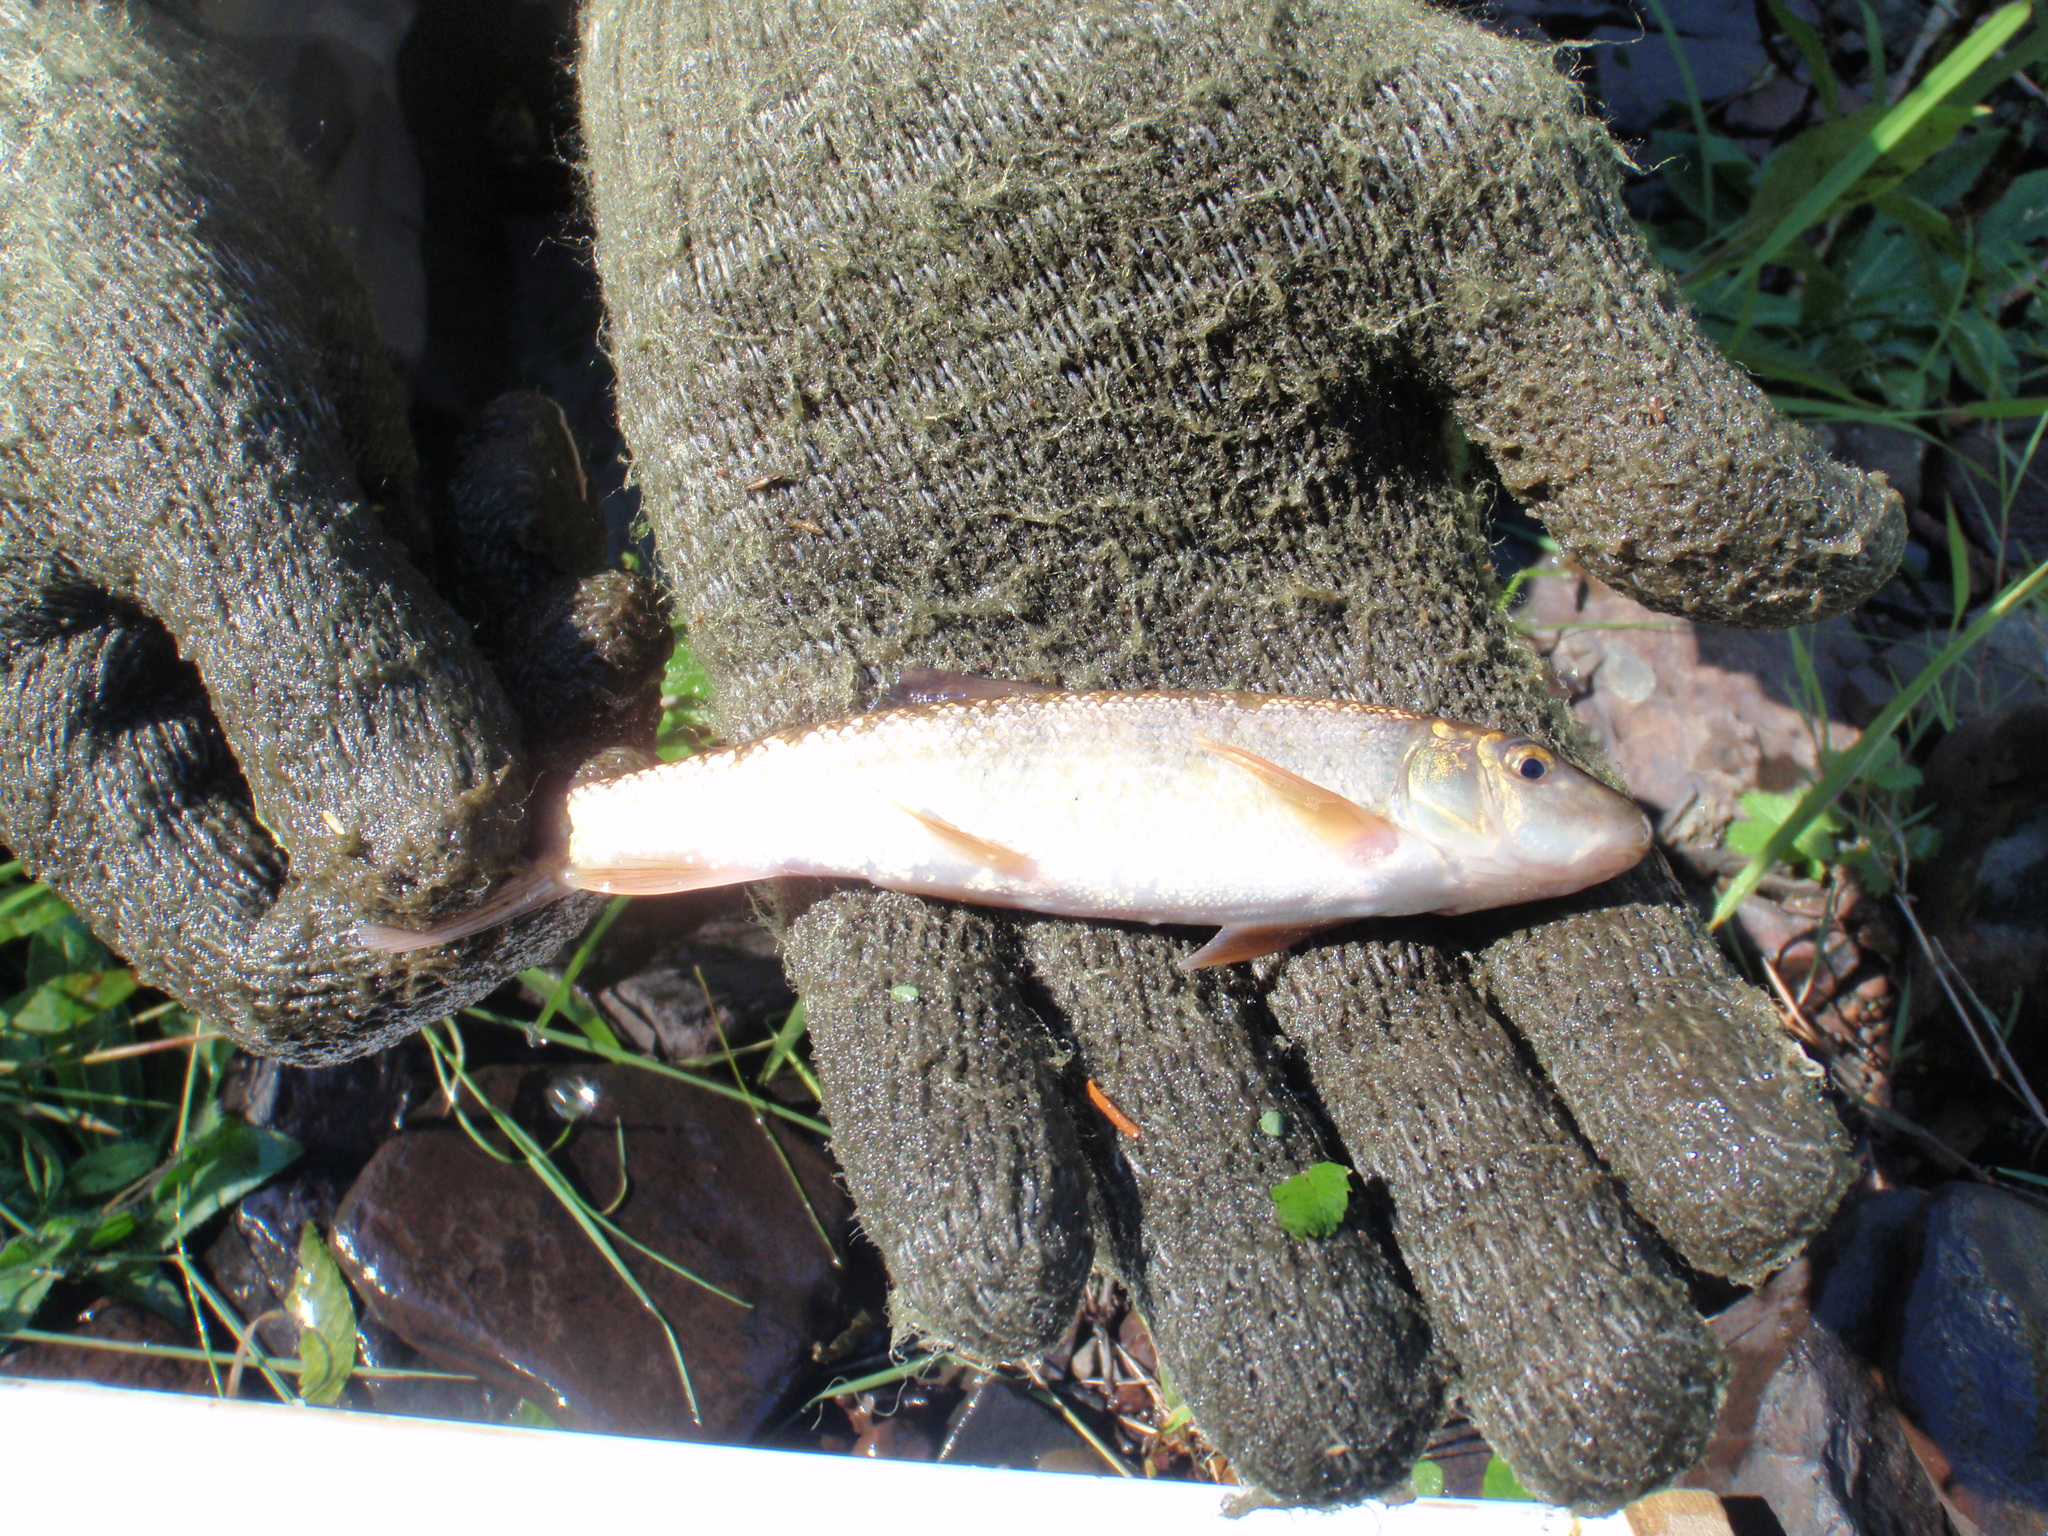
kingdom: Animalia
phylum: Chordata
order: Cypriniformes
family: Catostomidae
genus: Catostomus
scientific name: Catostomus commersonii
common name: White sucker
